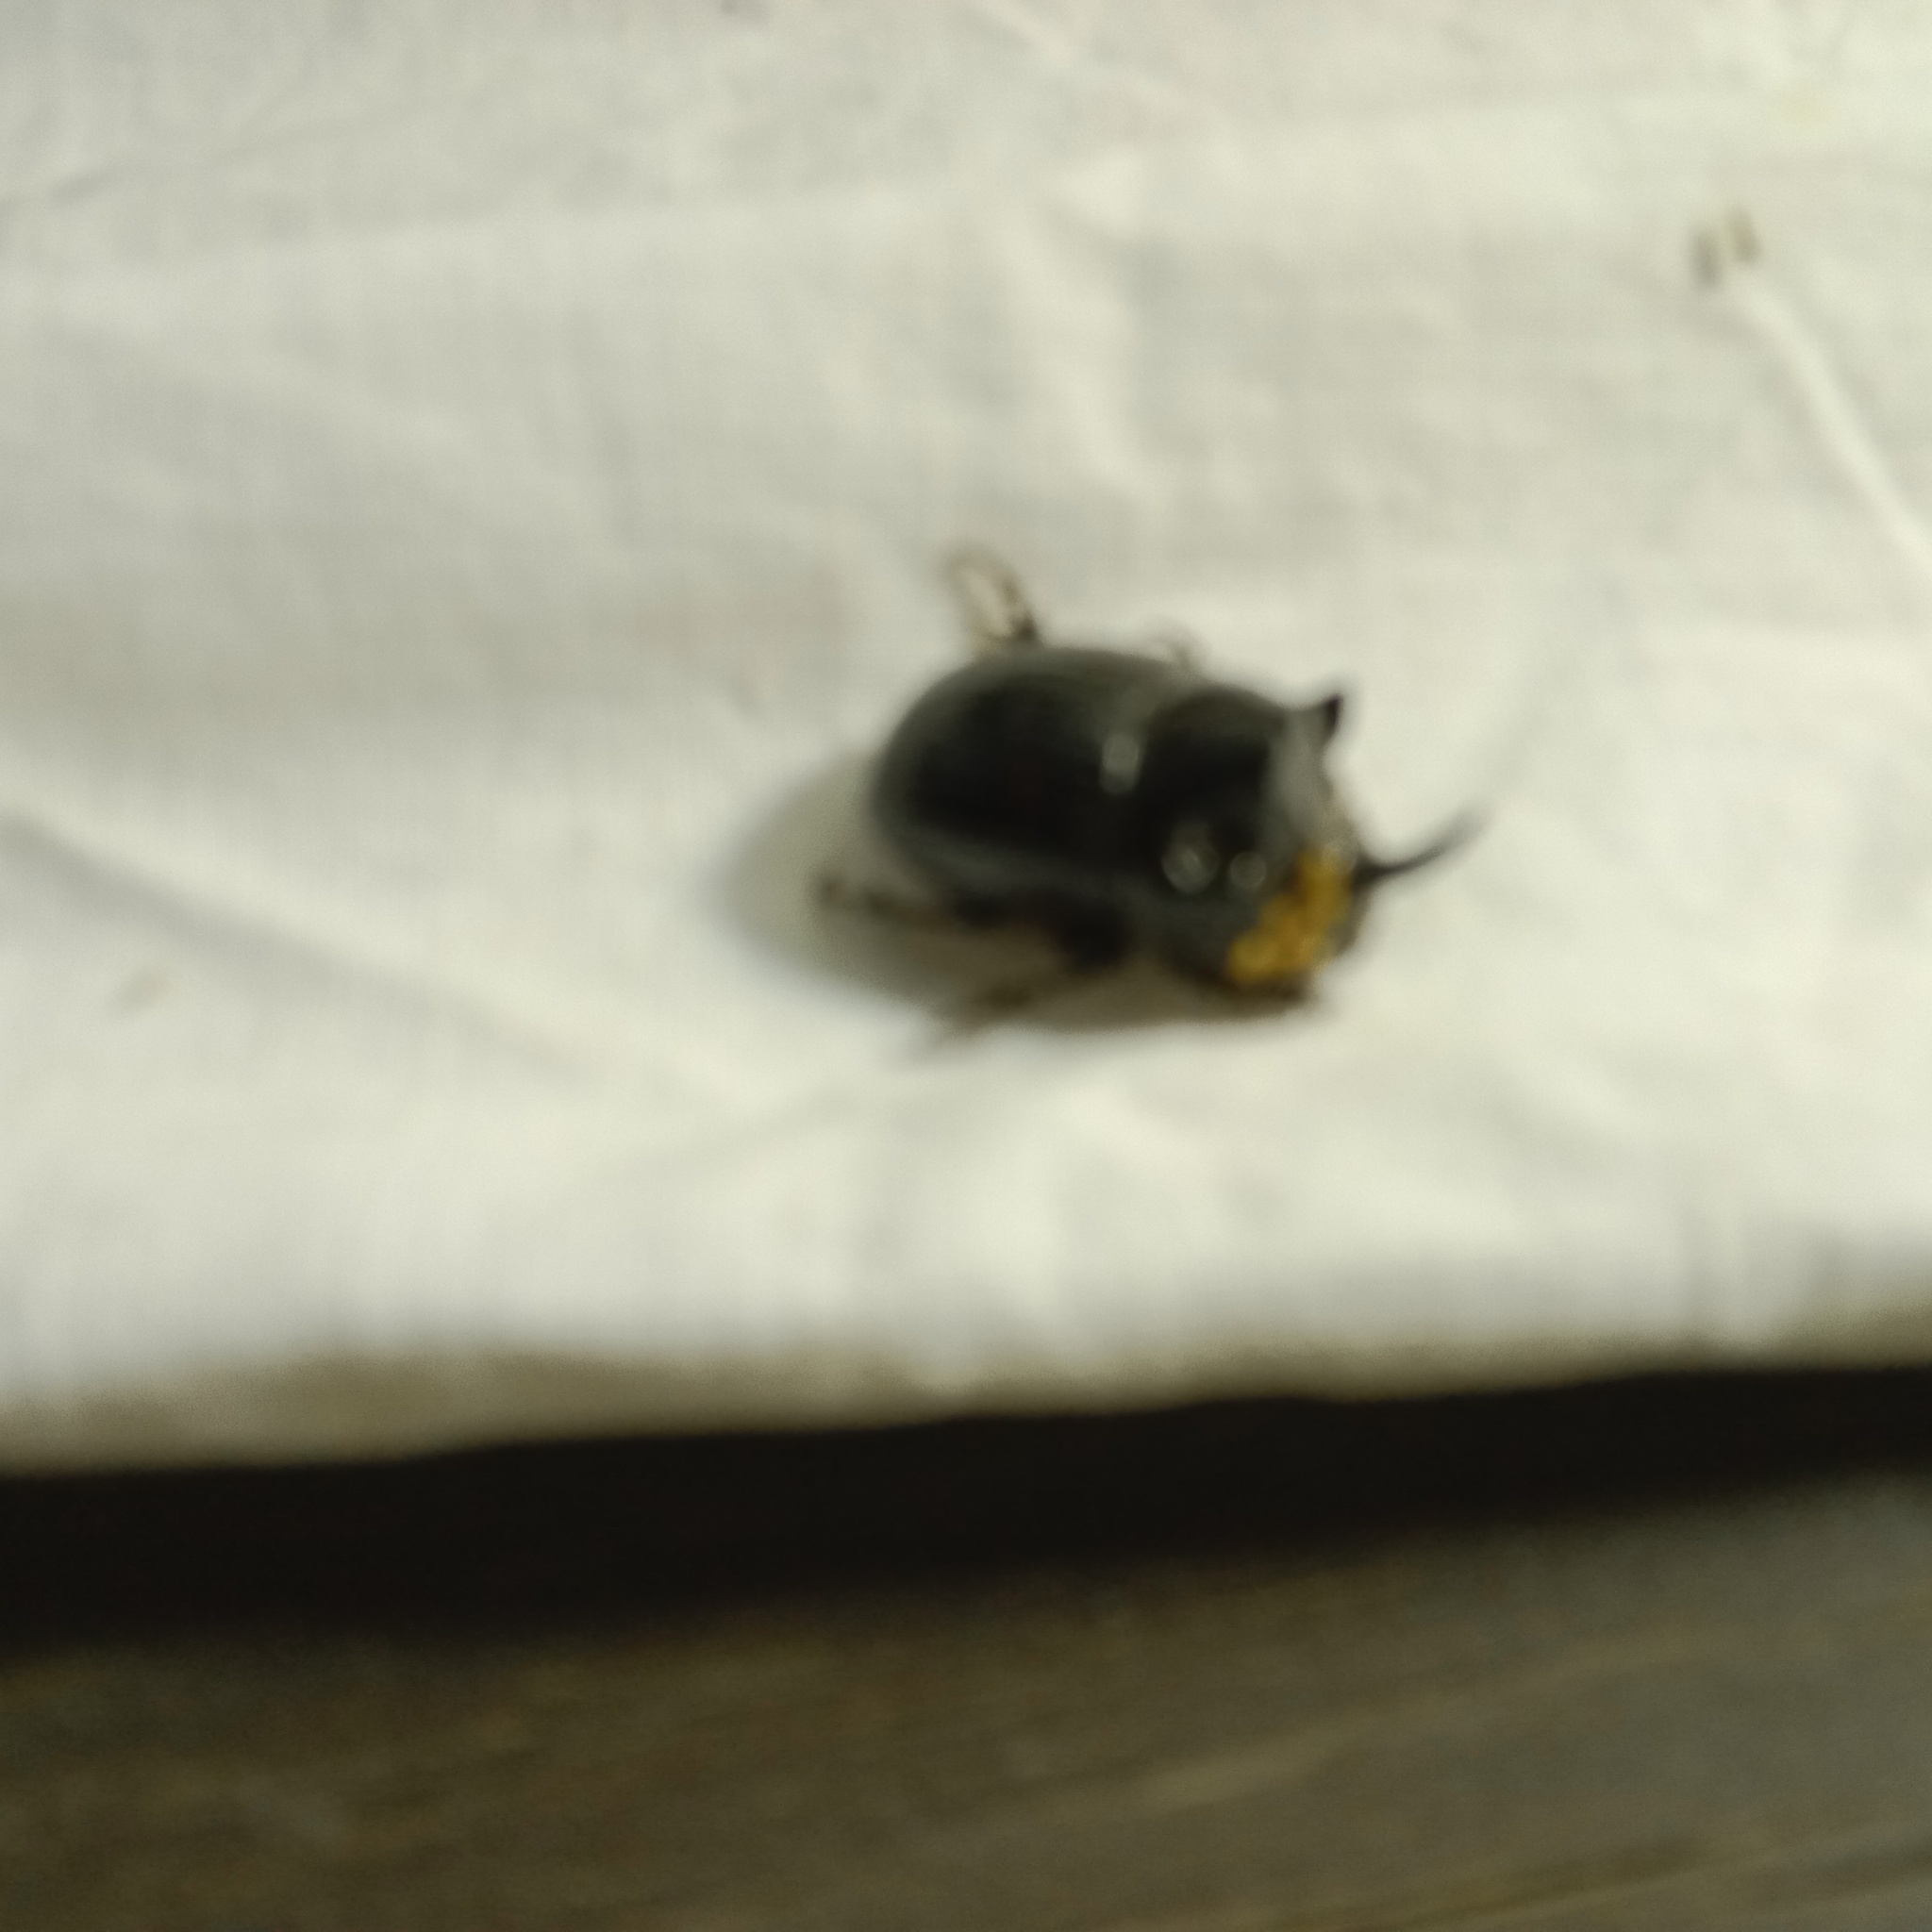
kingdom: Animalia
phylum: Arthropoda
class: Insecta
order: Coleoptera
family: Scarabaeidae
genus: Copris
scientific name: Copris lunaris
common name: Horned dung beetle
